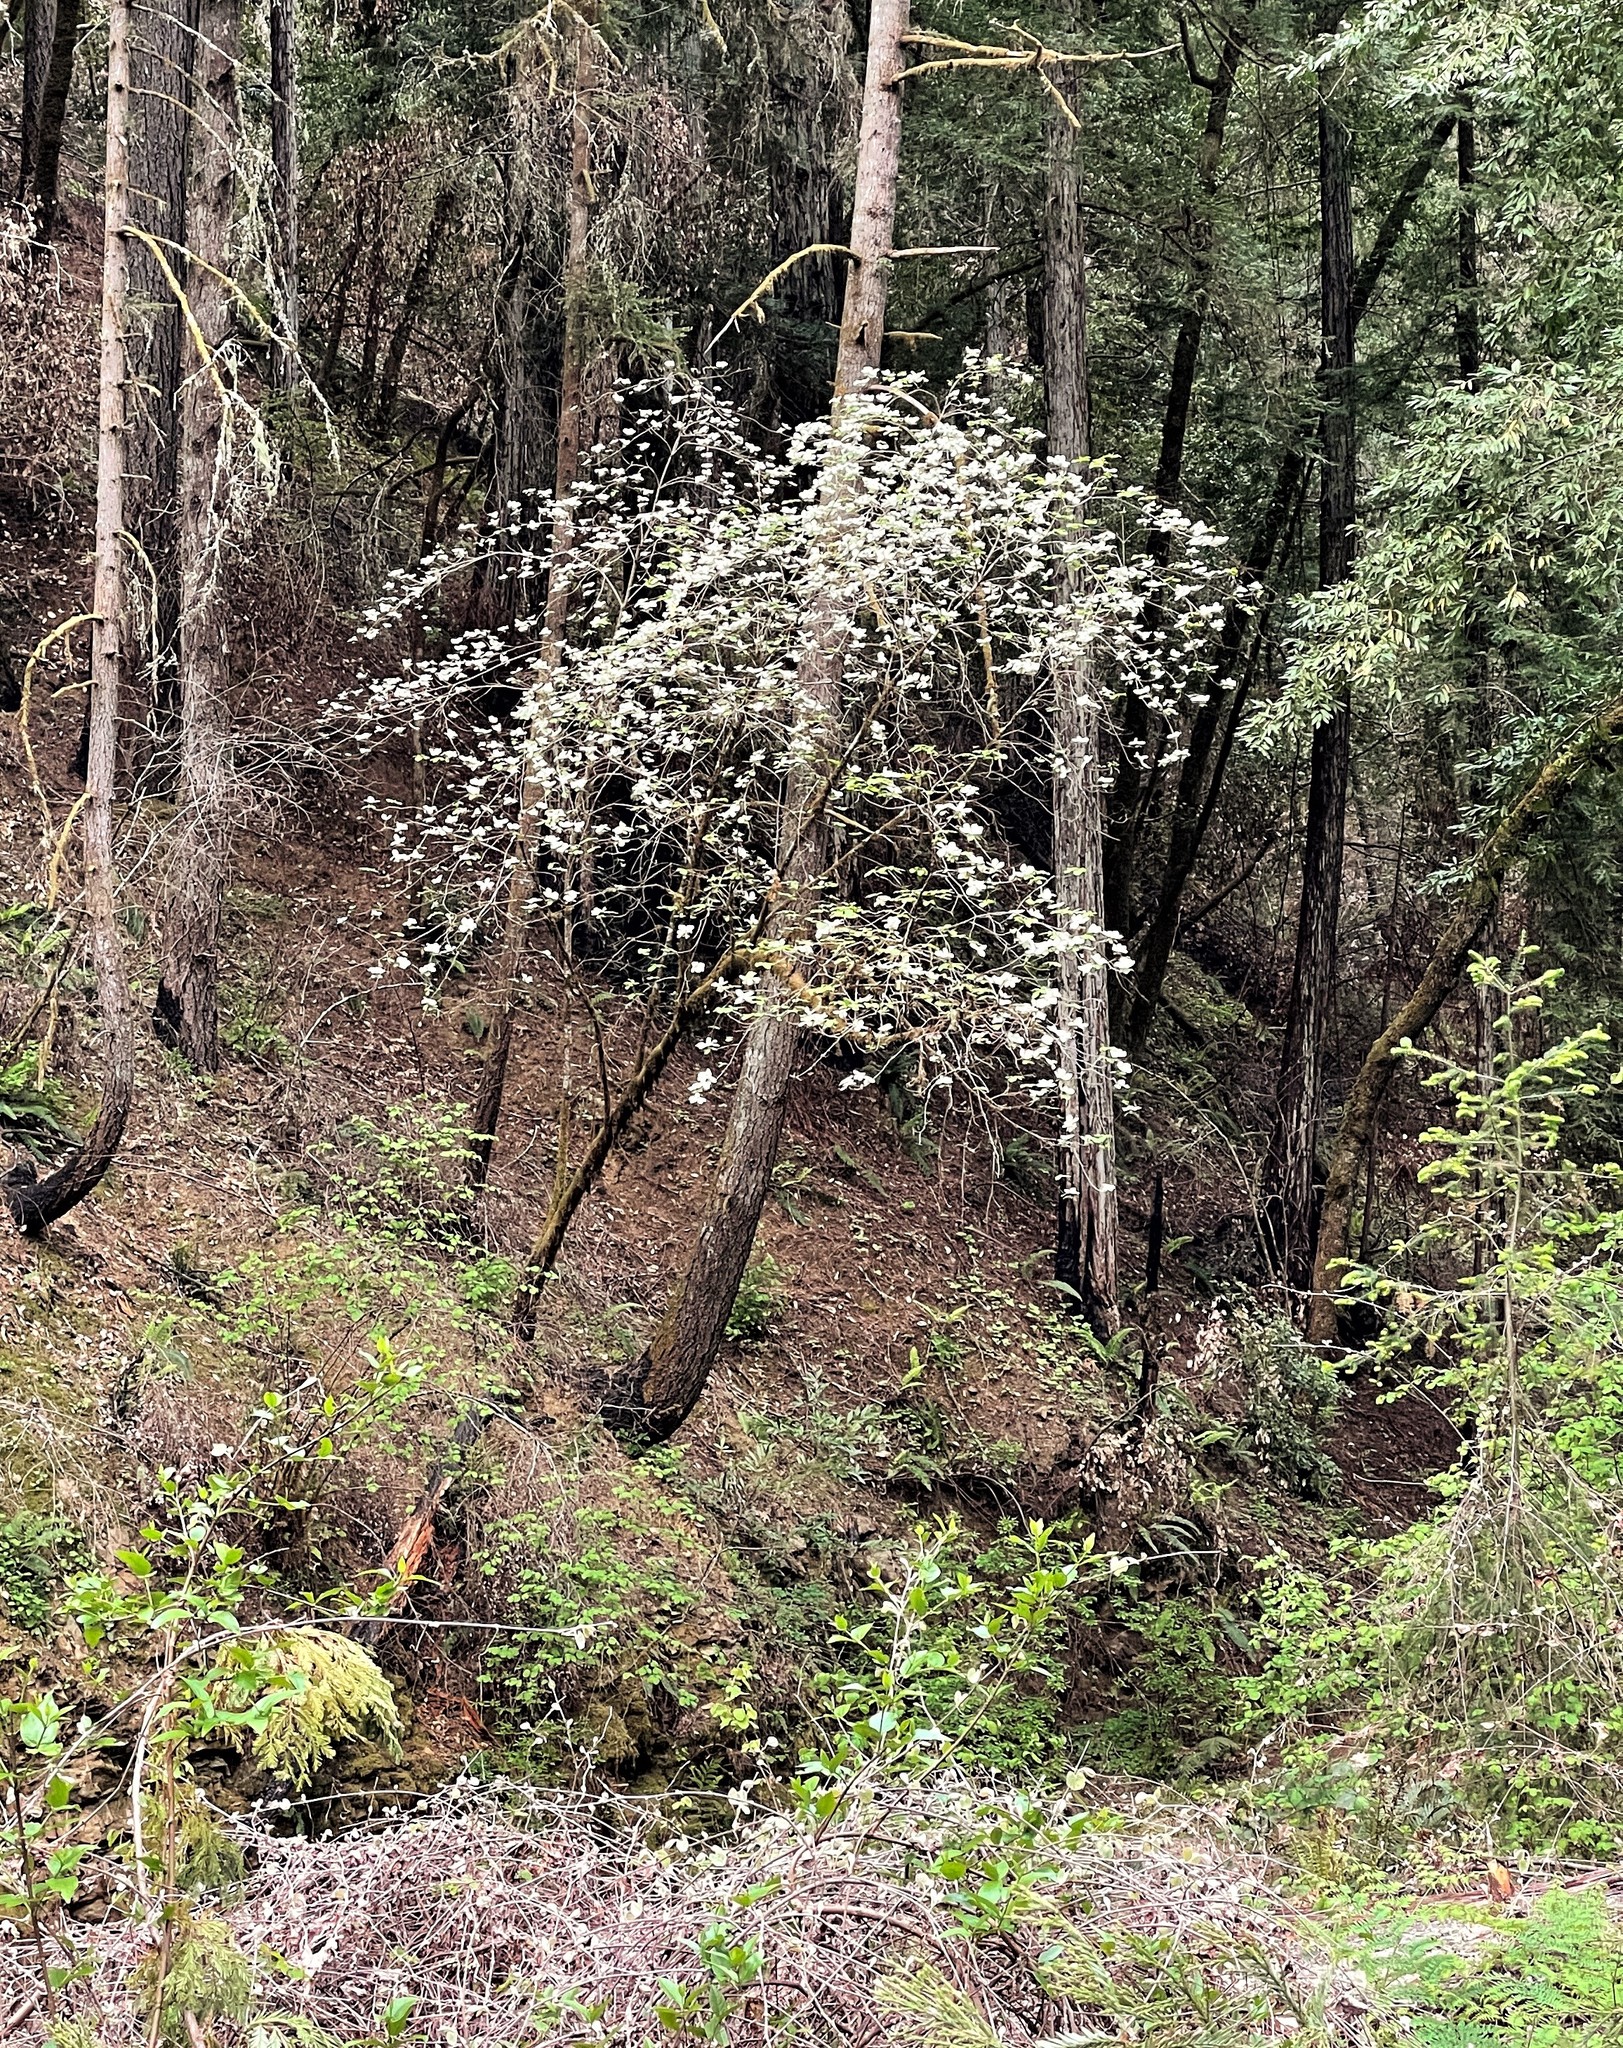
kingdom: Plantae
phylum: Tracheophyta
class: Magnoliopsida
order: Cornales
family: Cornaceae
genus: Cornus
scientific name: Cornus nuttallii
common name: Pacific dogwood
